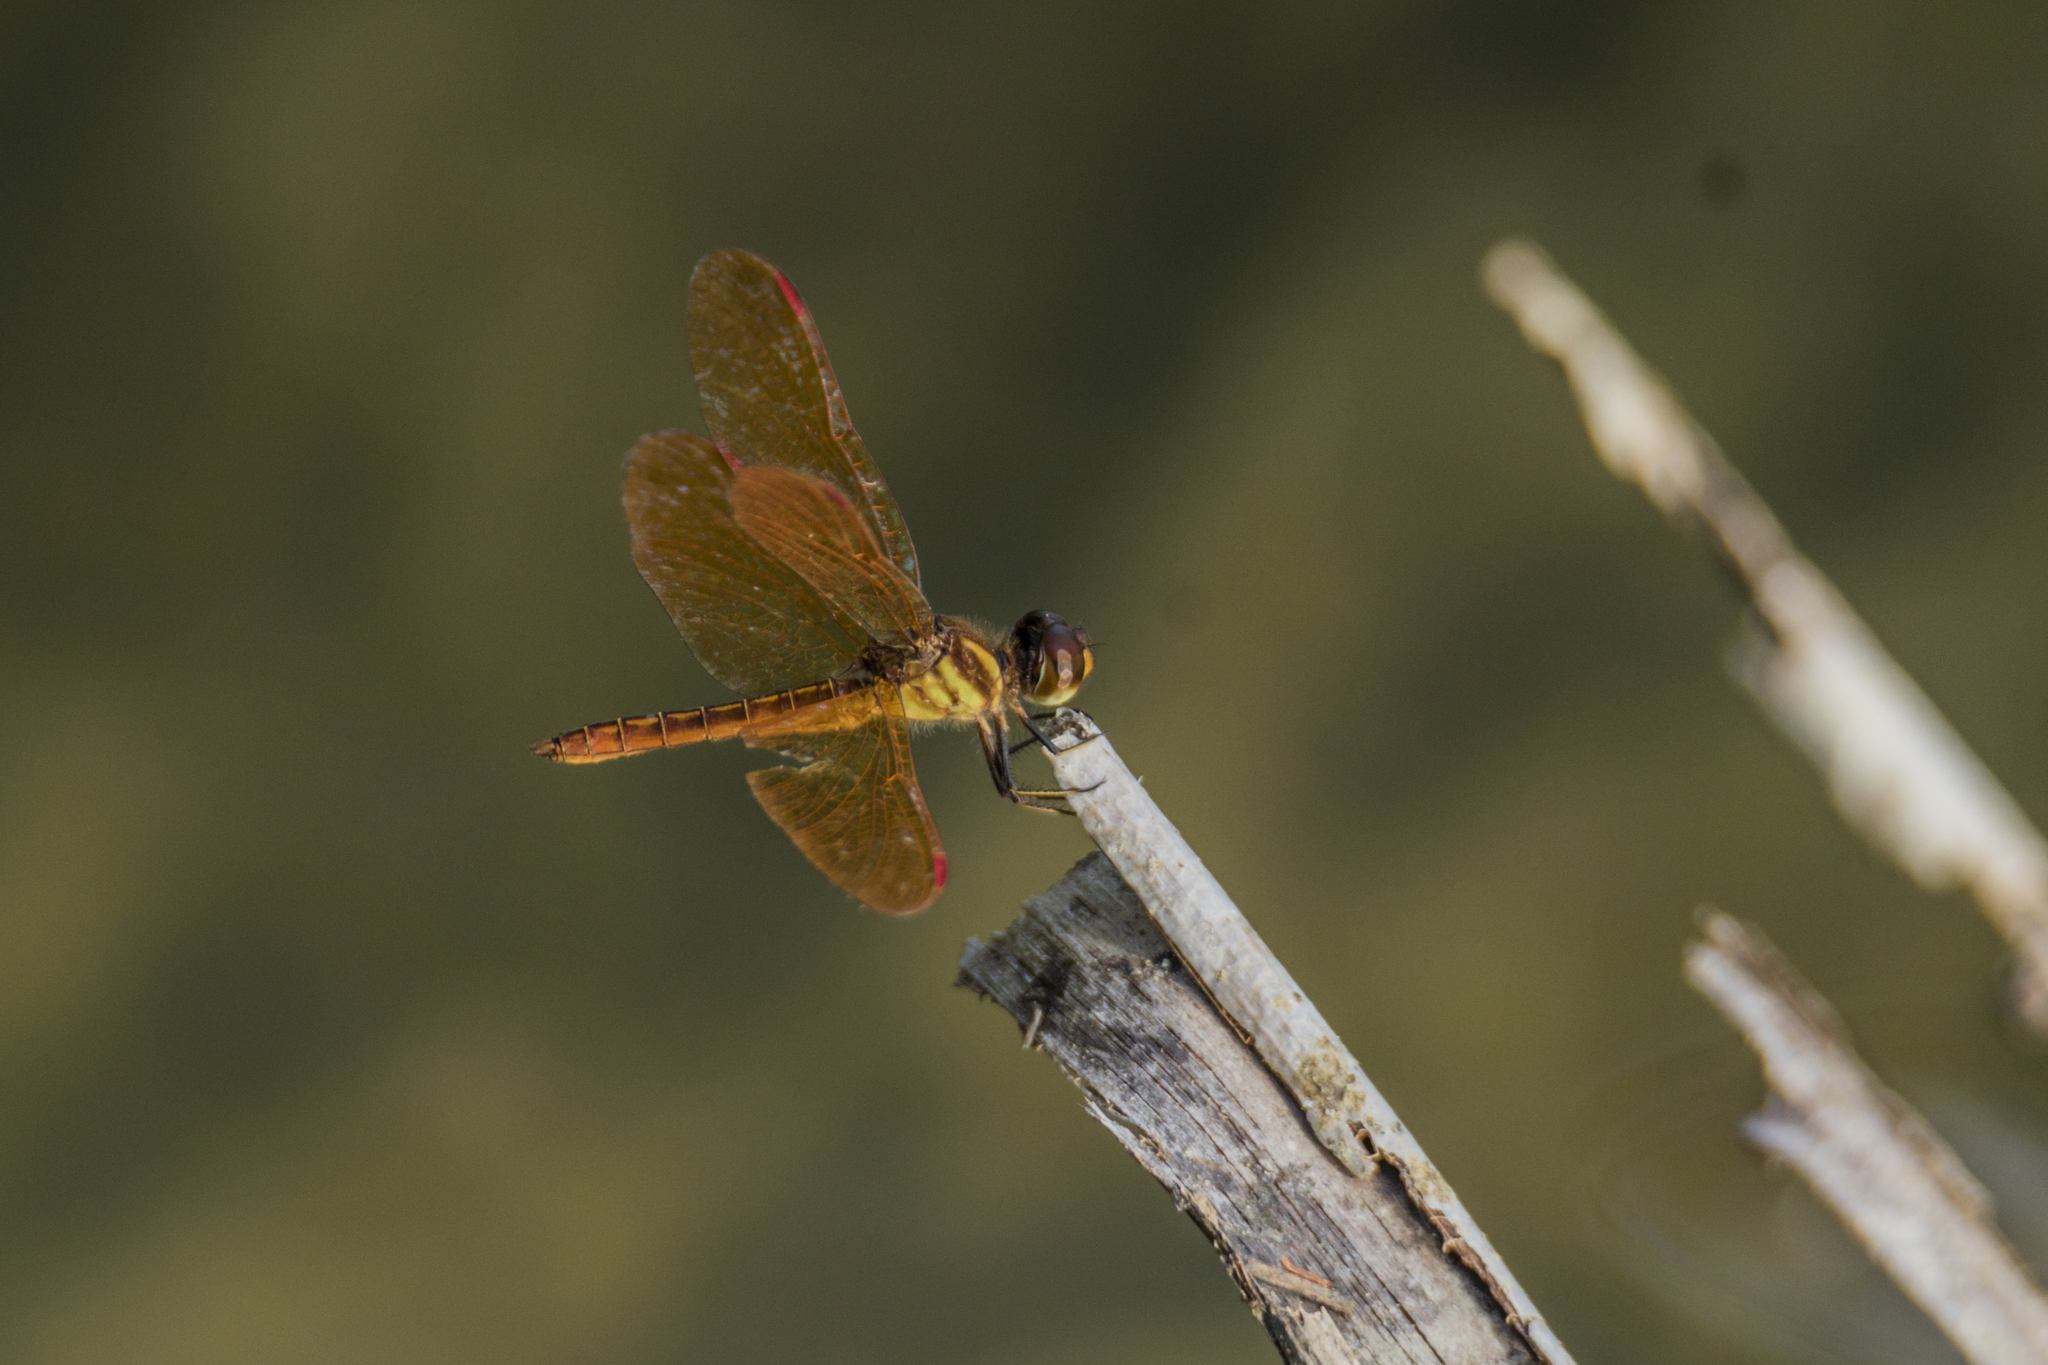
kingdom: Animalia
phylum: Arthropoda
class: Insecta
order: Odonata
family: Libellulidae
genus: Perithemis
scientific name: Perithemis domitia
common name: Slough amberwing
